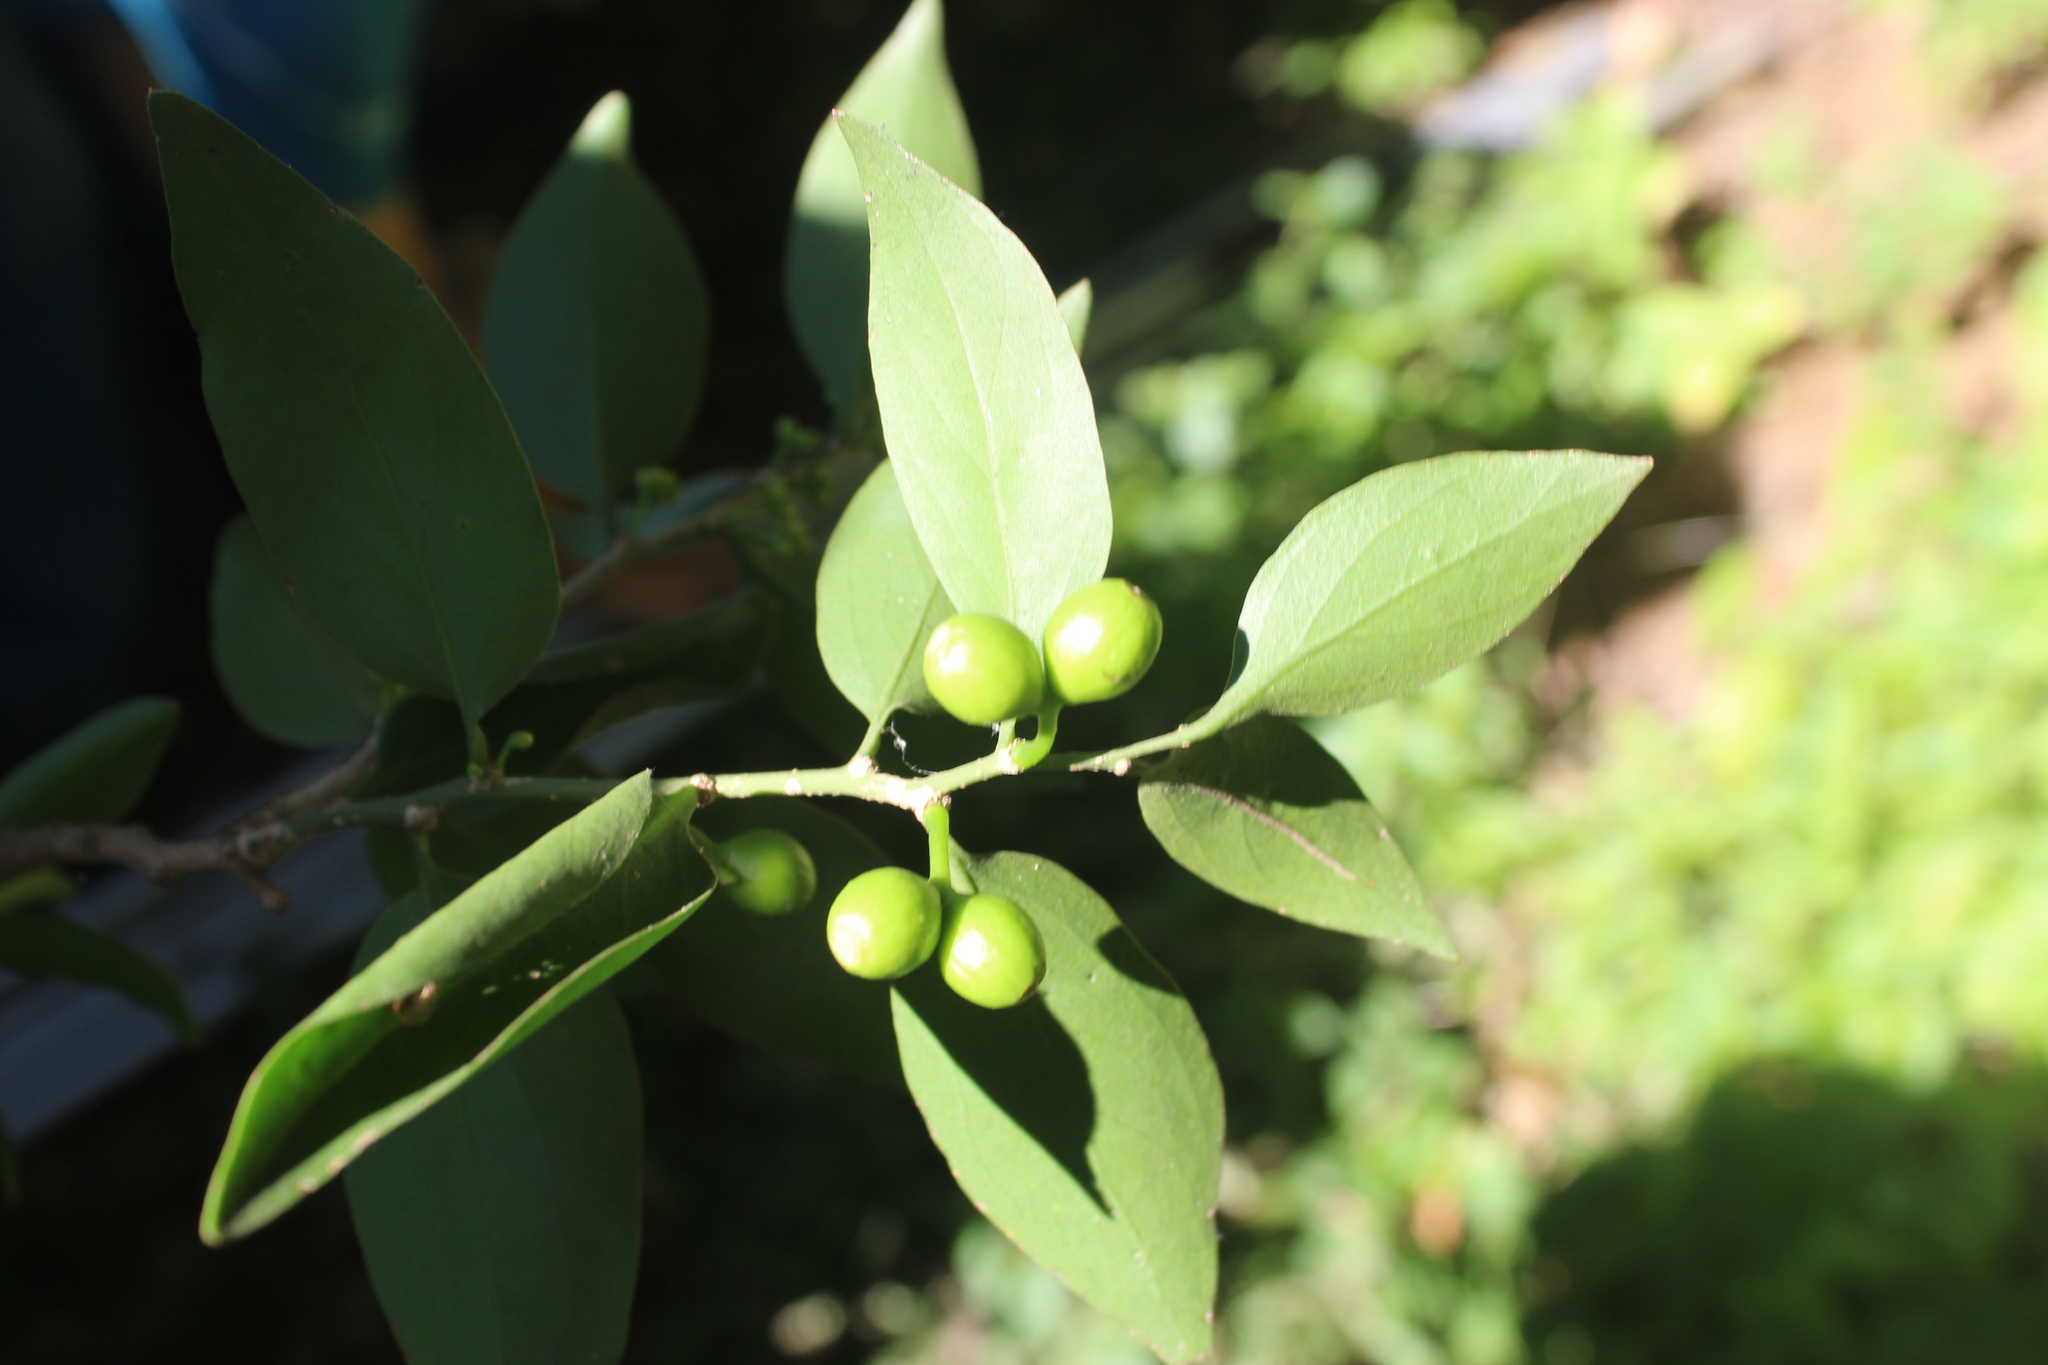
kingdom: Plantae
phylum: Tracheophyta
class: Magnoliopsida
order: Santalales
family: Schoepfiaceae
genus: Schoepfia
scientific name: Schoepfia schreberi
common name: Gulf graytwig
